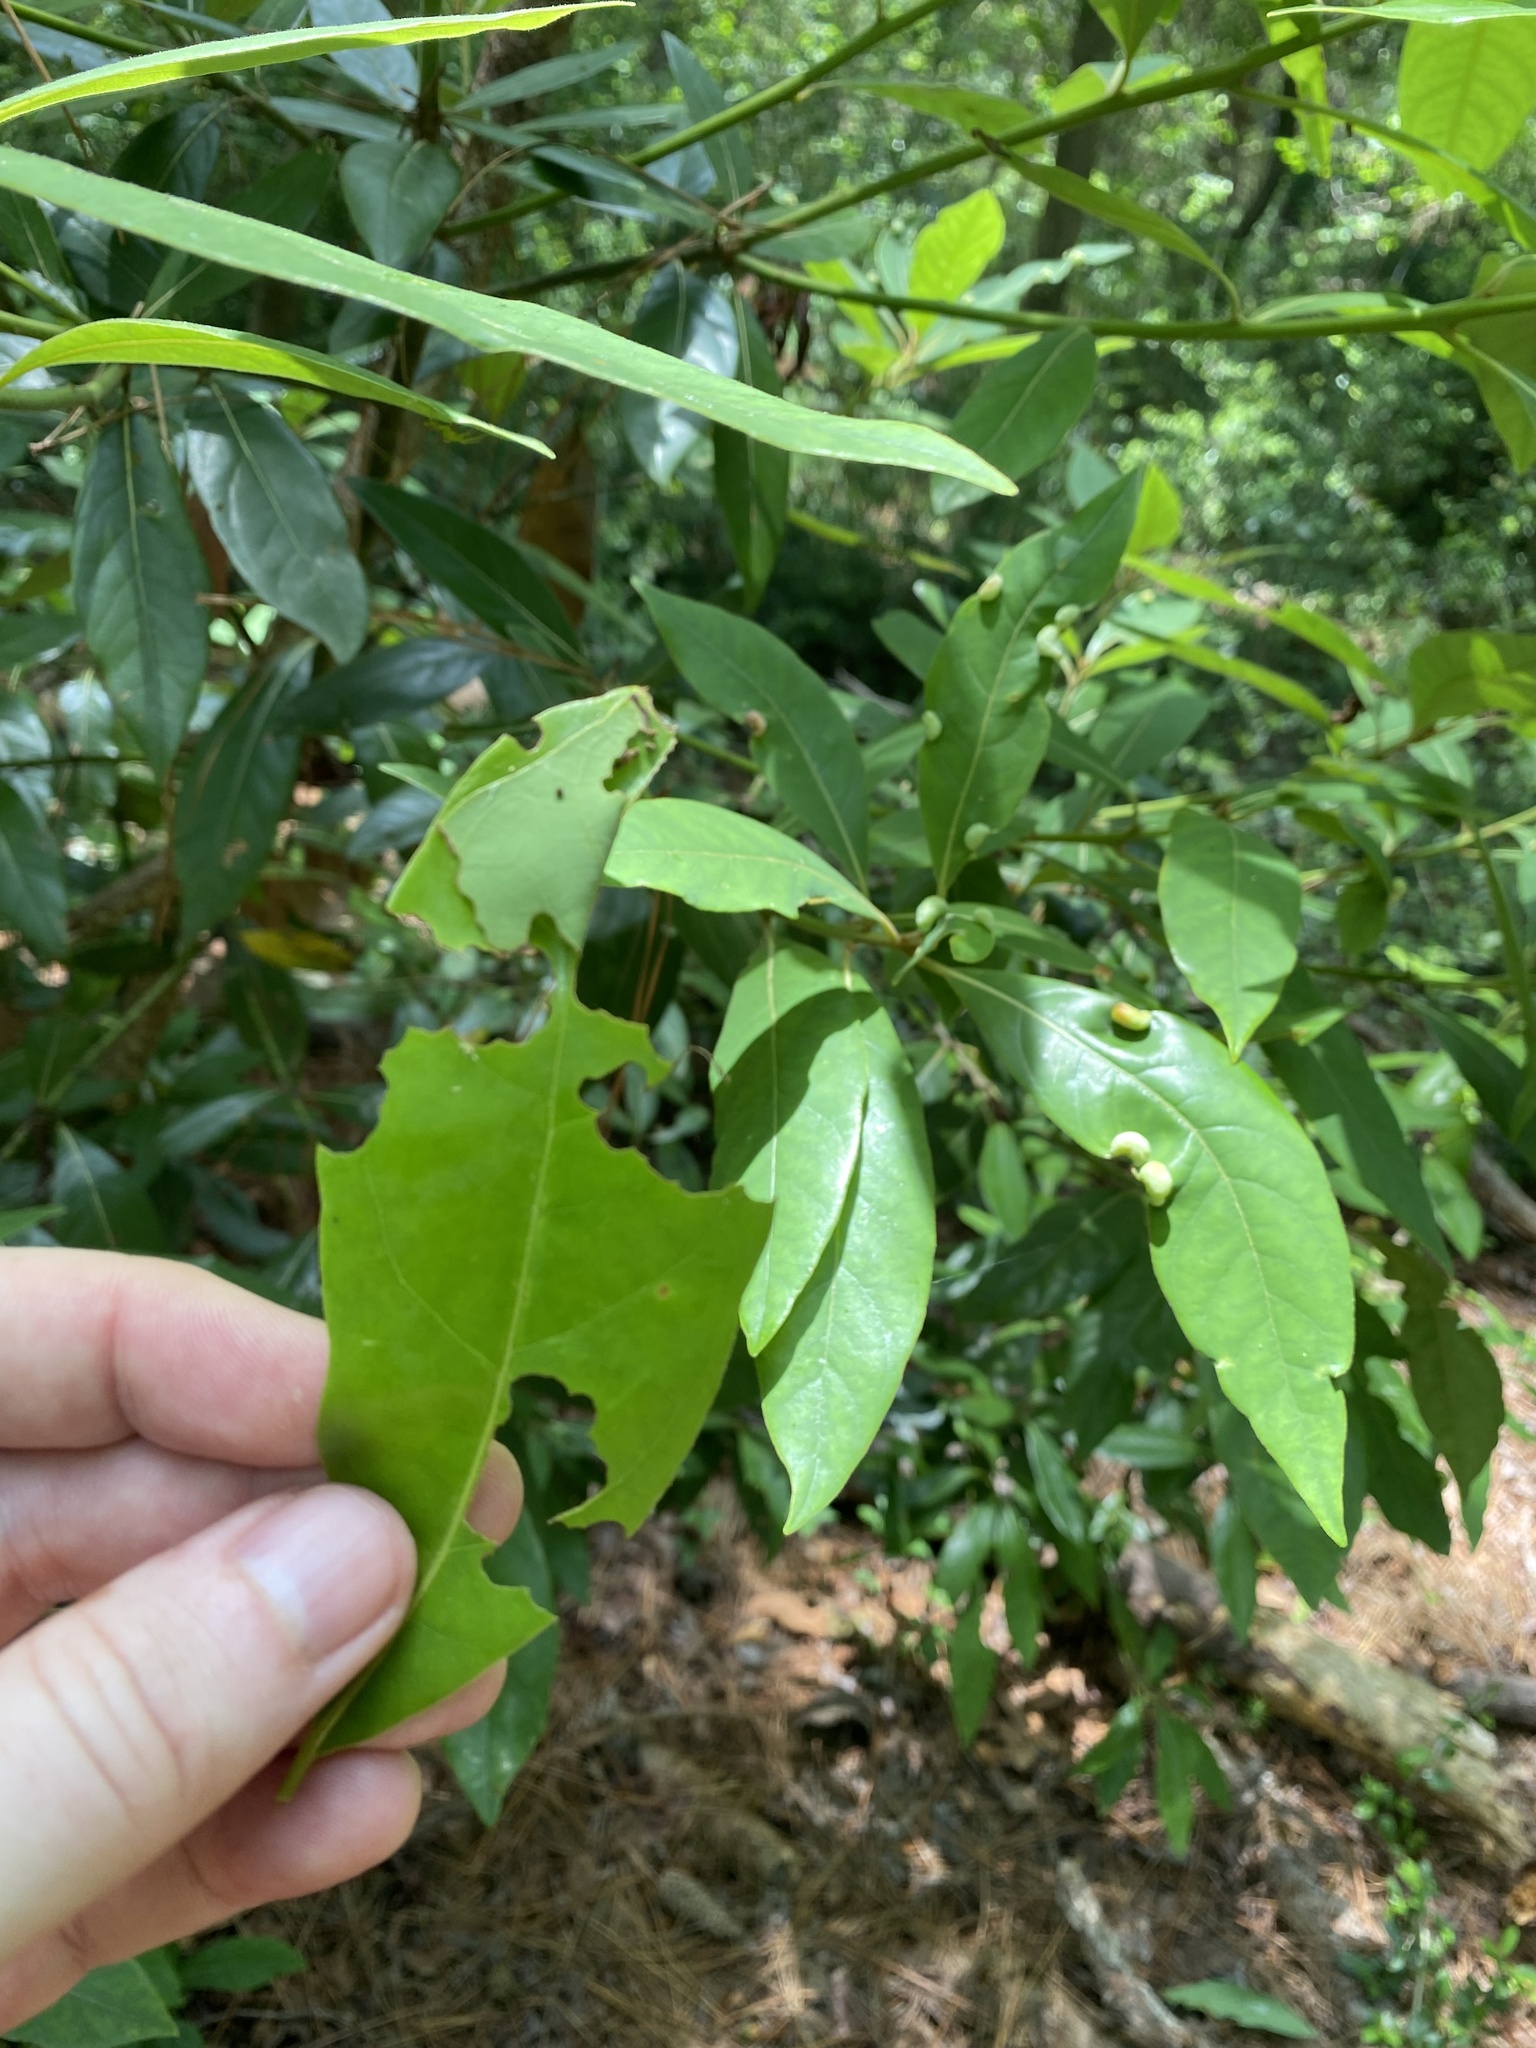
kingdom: Animalia
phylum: Arthropoda
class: Insecta
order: Lepidoptera
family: Papilionidae
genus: Papilio
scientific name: Papilio palamedes
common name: Palamedes swallowtail
